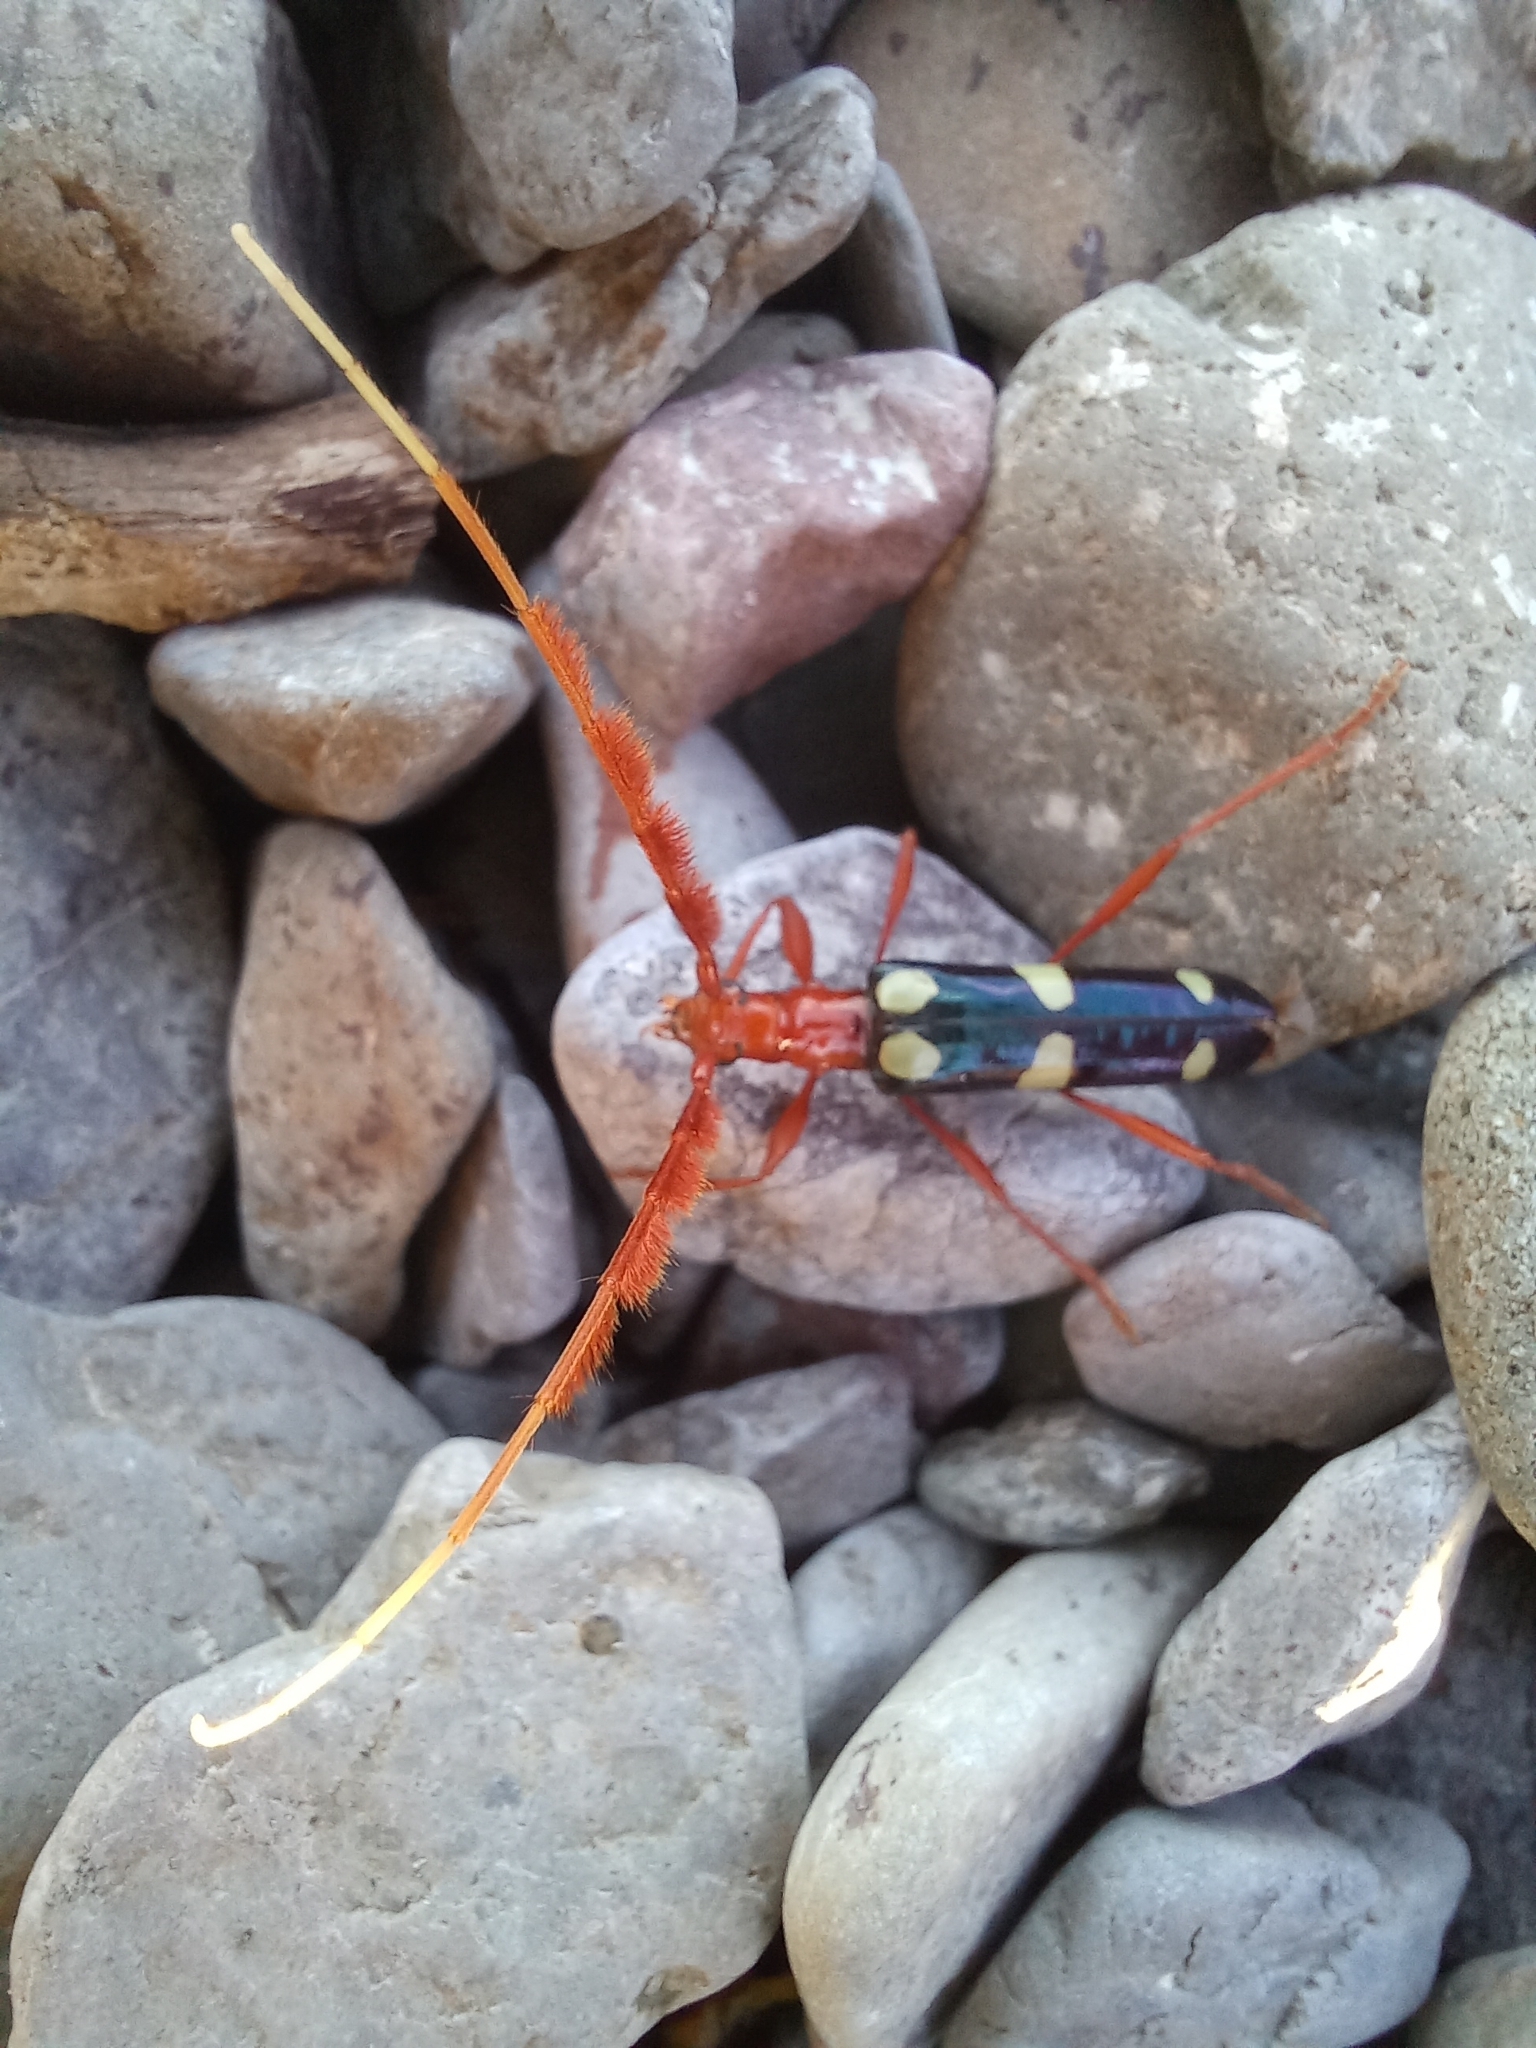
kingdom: Animalia
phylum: Arthropoda
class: Insecta
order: Coleoptera
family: Cerambycidae
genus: Achenoderus
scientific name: Achenoderus octomaculatus
